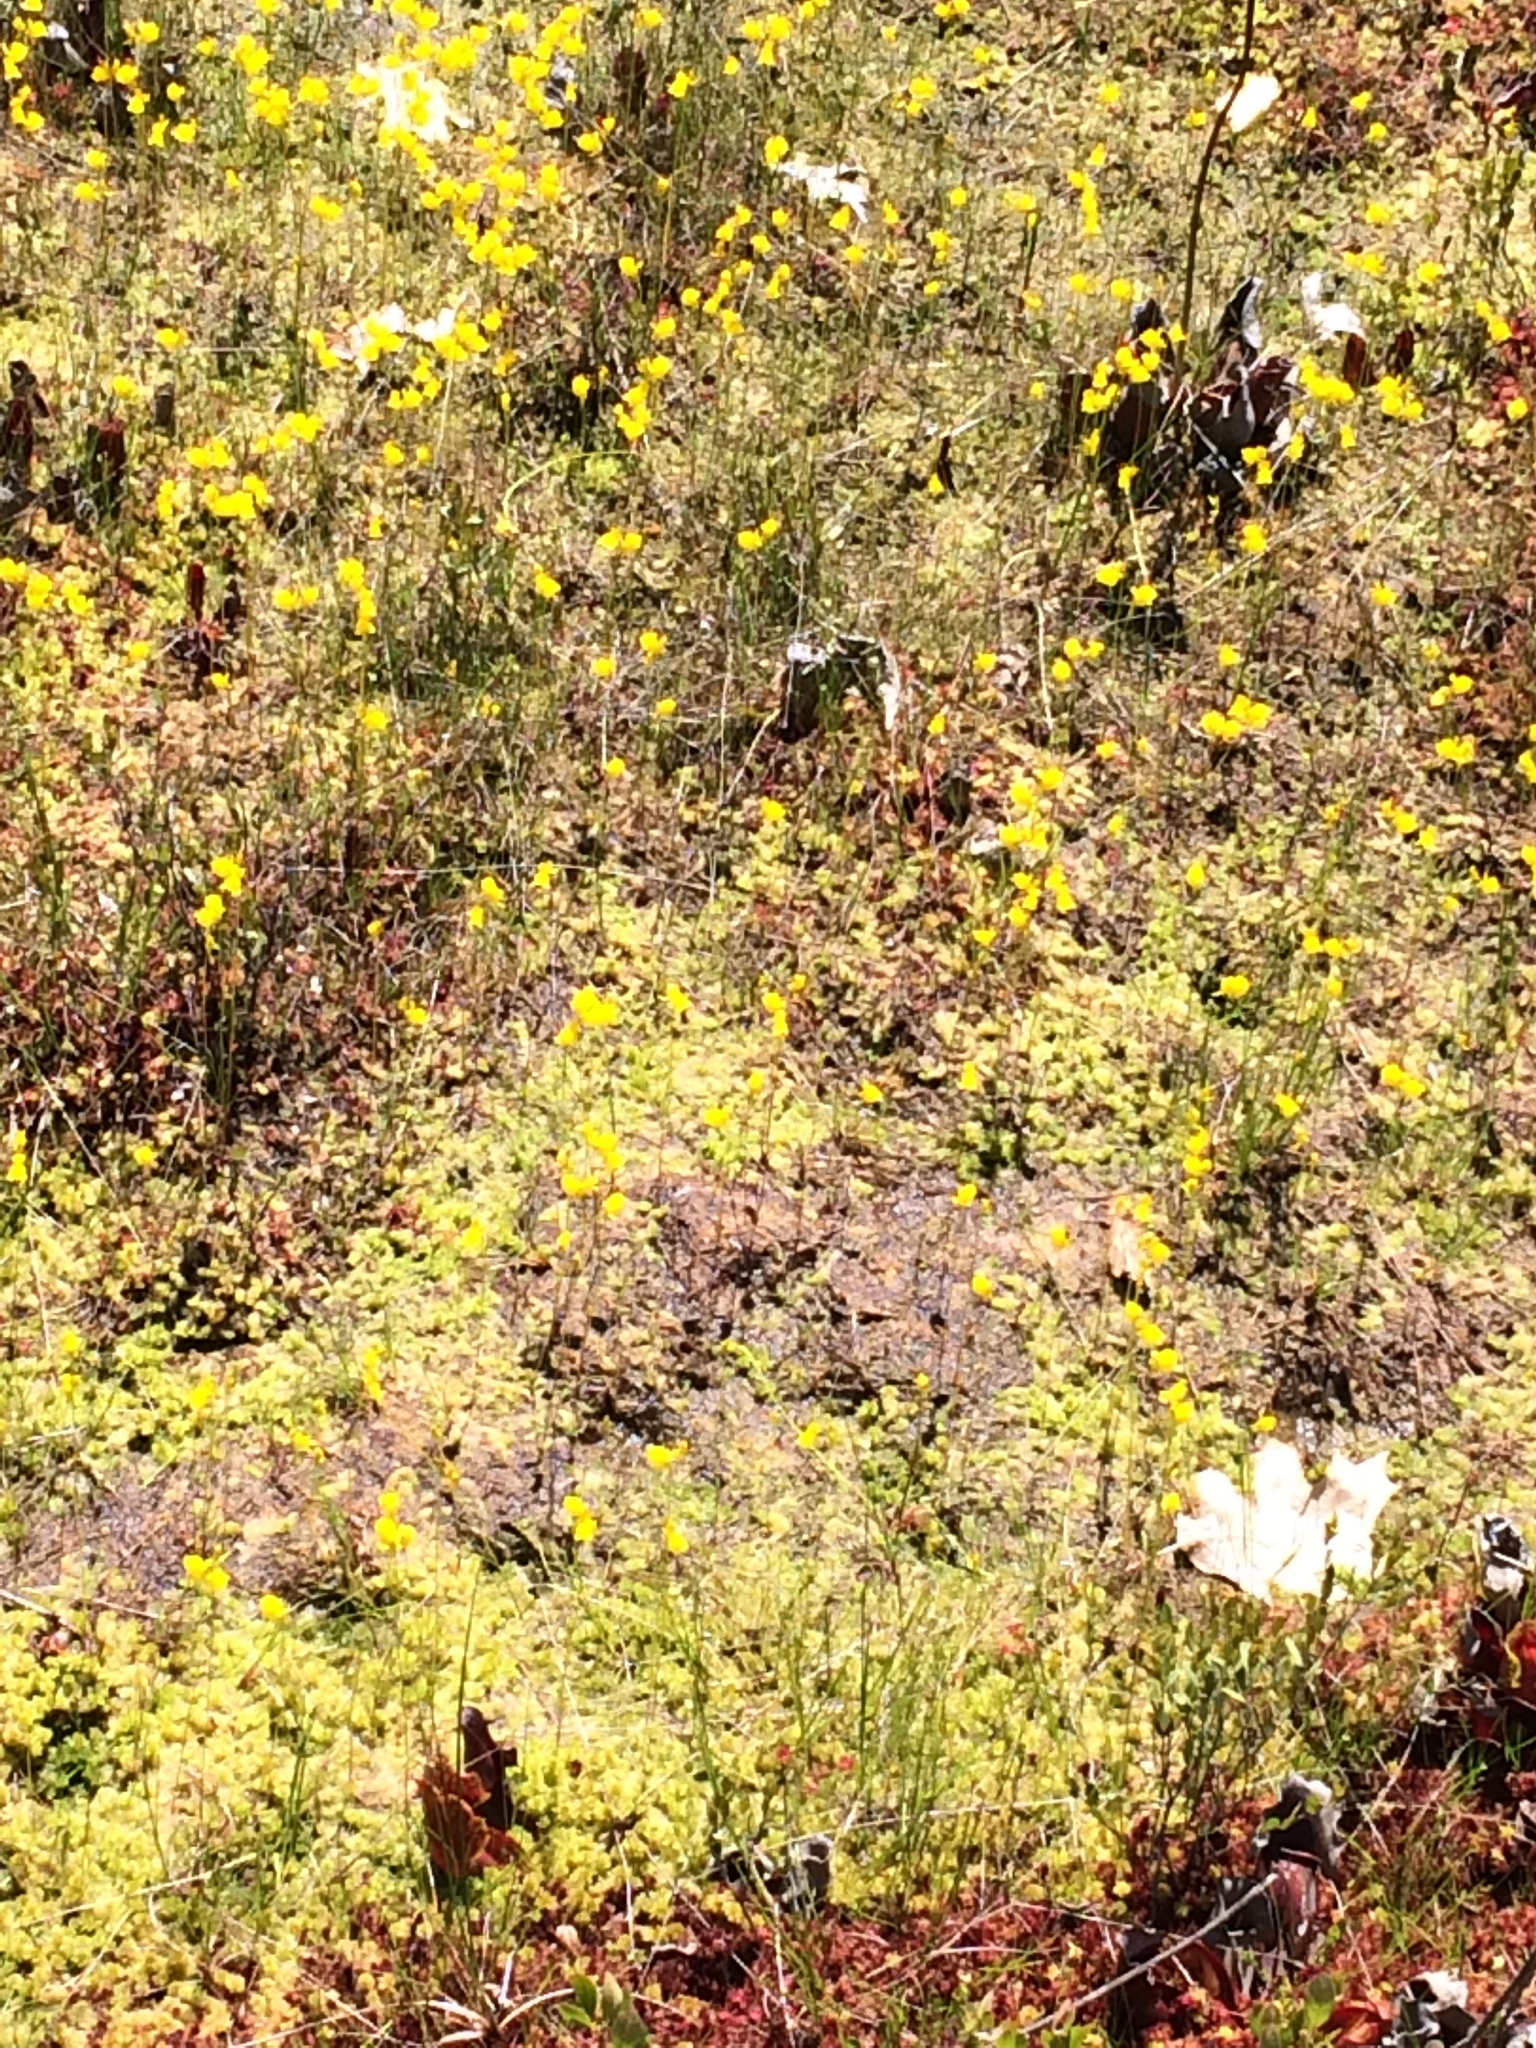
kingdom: Plantae
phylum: Tracheophyta
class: Magnoliopsida
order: Lamiales
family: Lentibulariaceae
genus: Utricularia
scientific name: Utricularia cornuta
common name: Horned bladderwort
